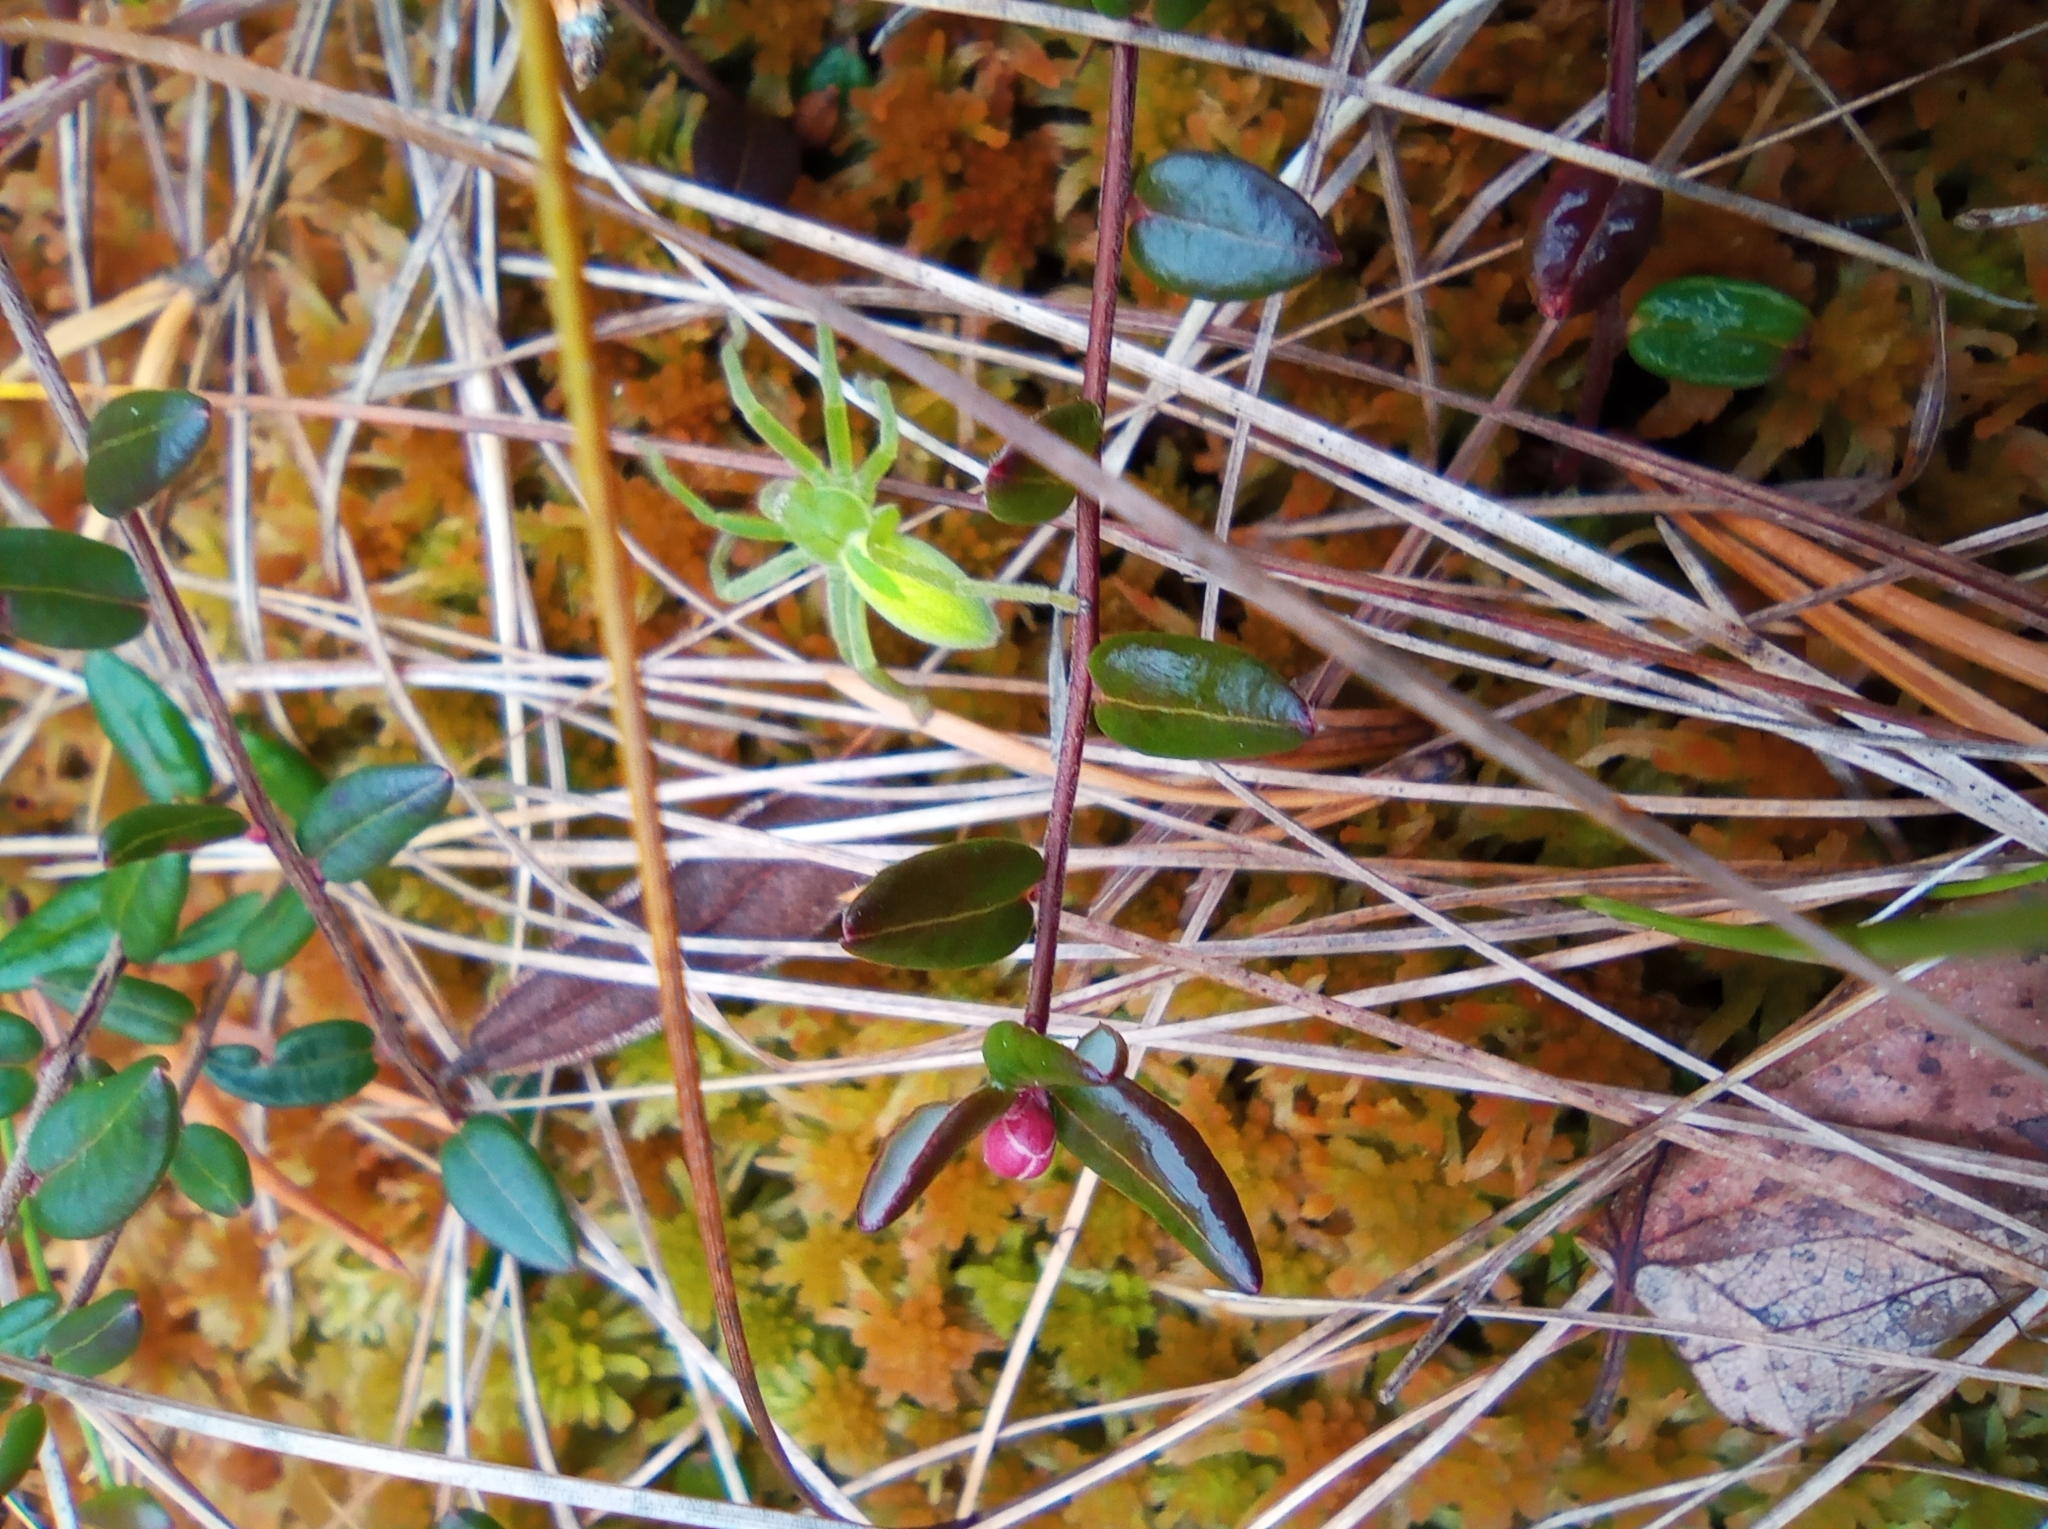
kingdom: Animalia
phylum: Arthropoda
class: Arachnida
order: Araneae
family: Sparassidae
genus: Micrommata
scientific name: Micrommata virescens
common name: Green spider
